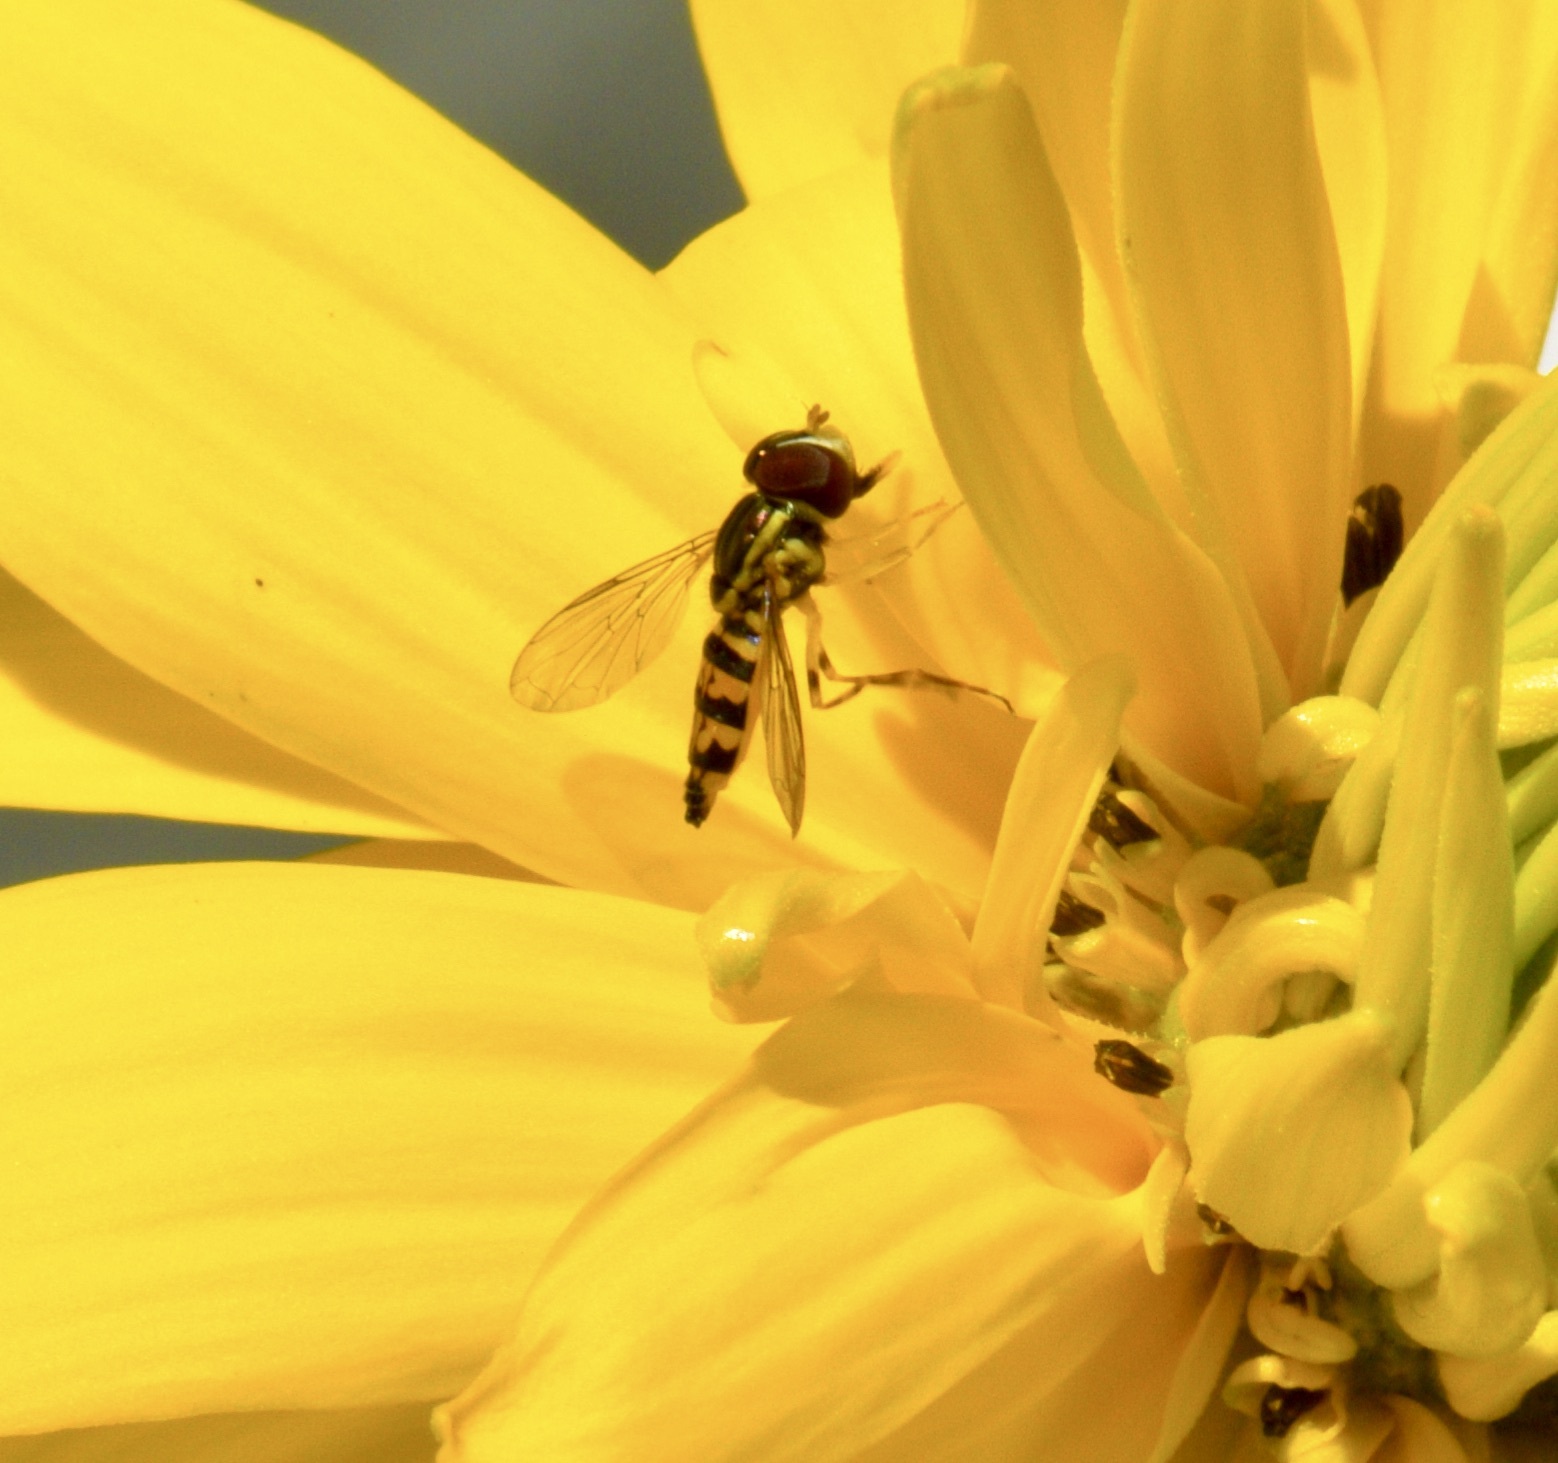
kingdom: Animalia
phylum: Arthropoda
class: Insecta
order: Diptera
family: Syrphidae
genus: Toxomerus
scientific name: Toxomerus geminatus
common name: Eastern calligrapher
